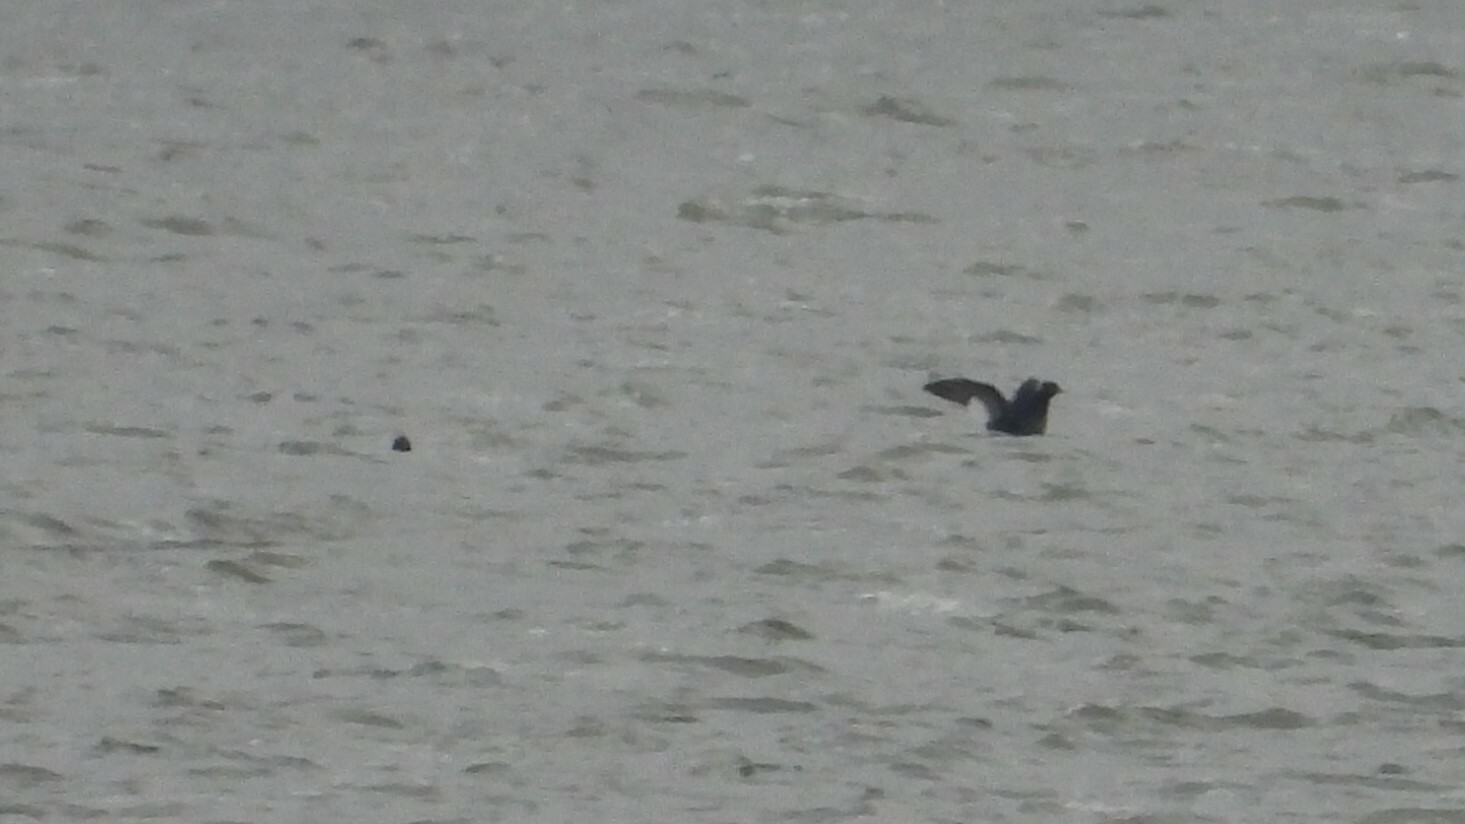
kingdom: Animalia
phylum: Chordata
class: Aves
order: Anseriformes
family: Anatidae
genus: Melanitta
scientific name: Melanitta deglandi
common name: White-winged scoter
